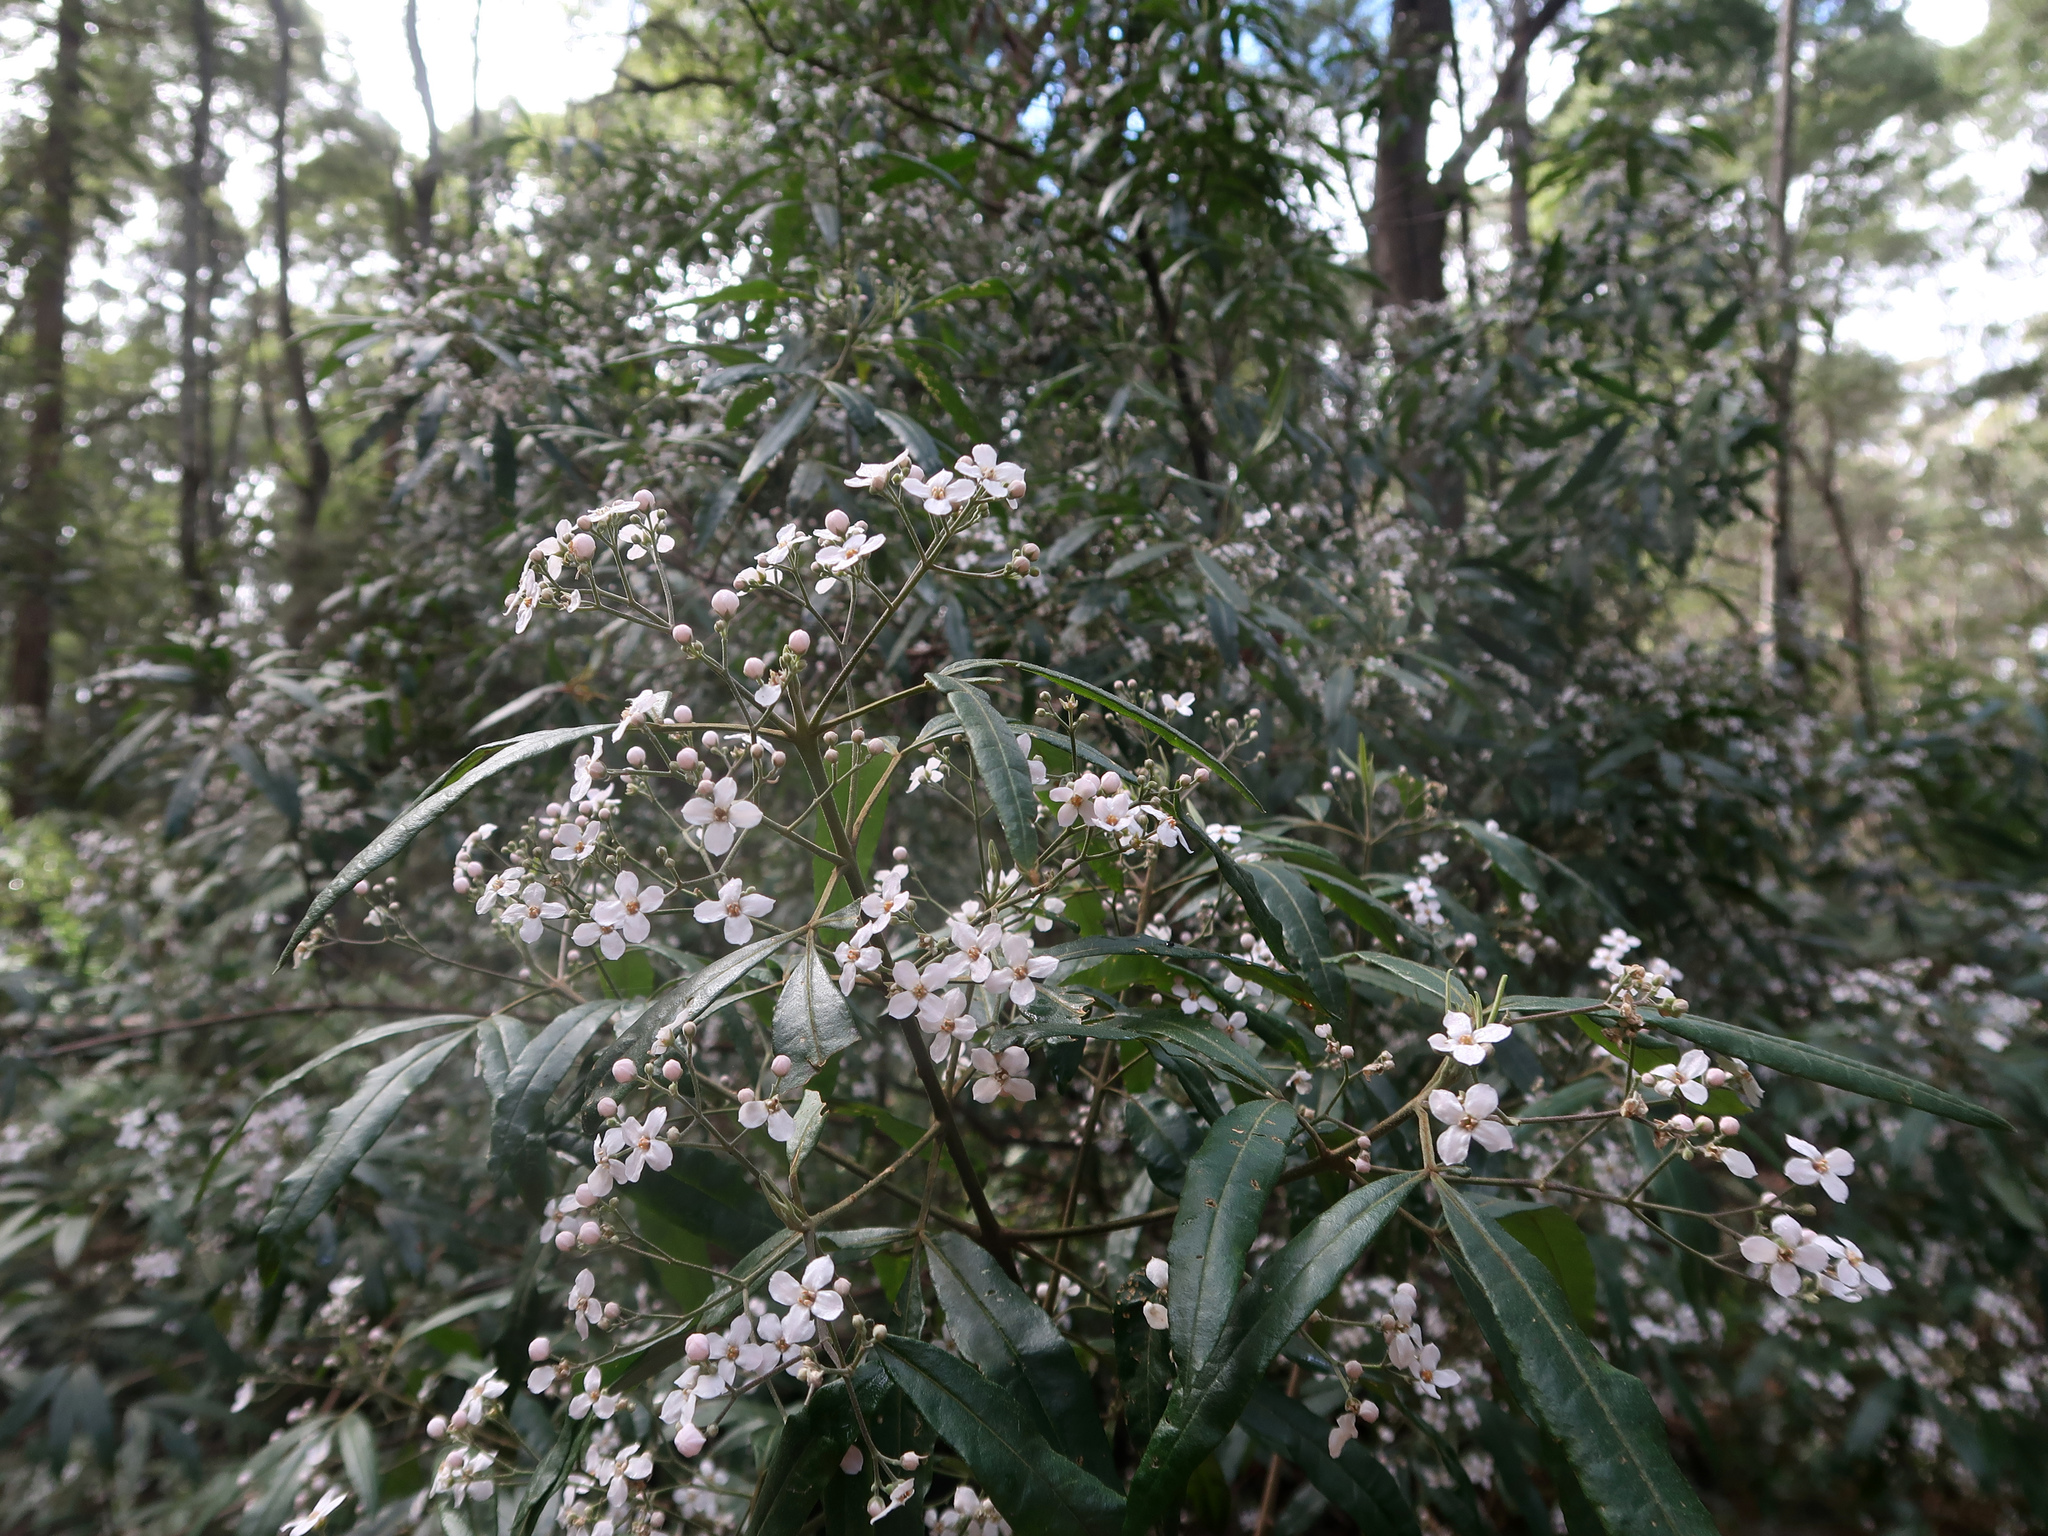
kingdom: Plantae
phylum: Tracheophyta
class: Magnoliopsida
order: Sapindales
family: Rutaceae
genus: Zieria
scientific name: Zieria arborescens
